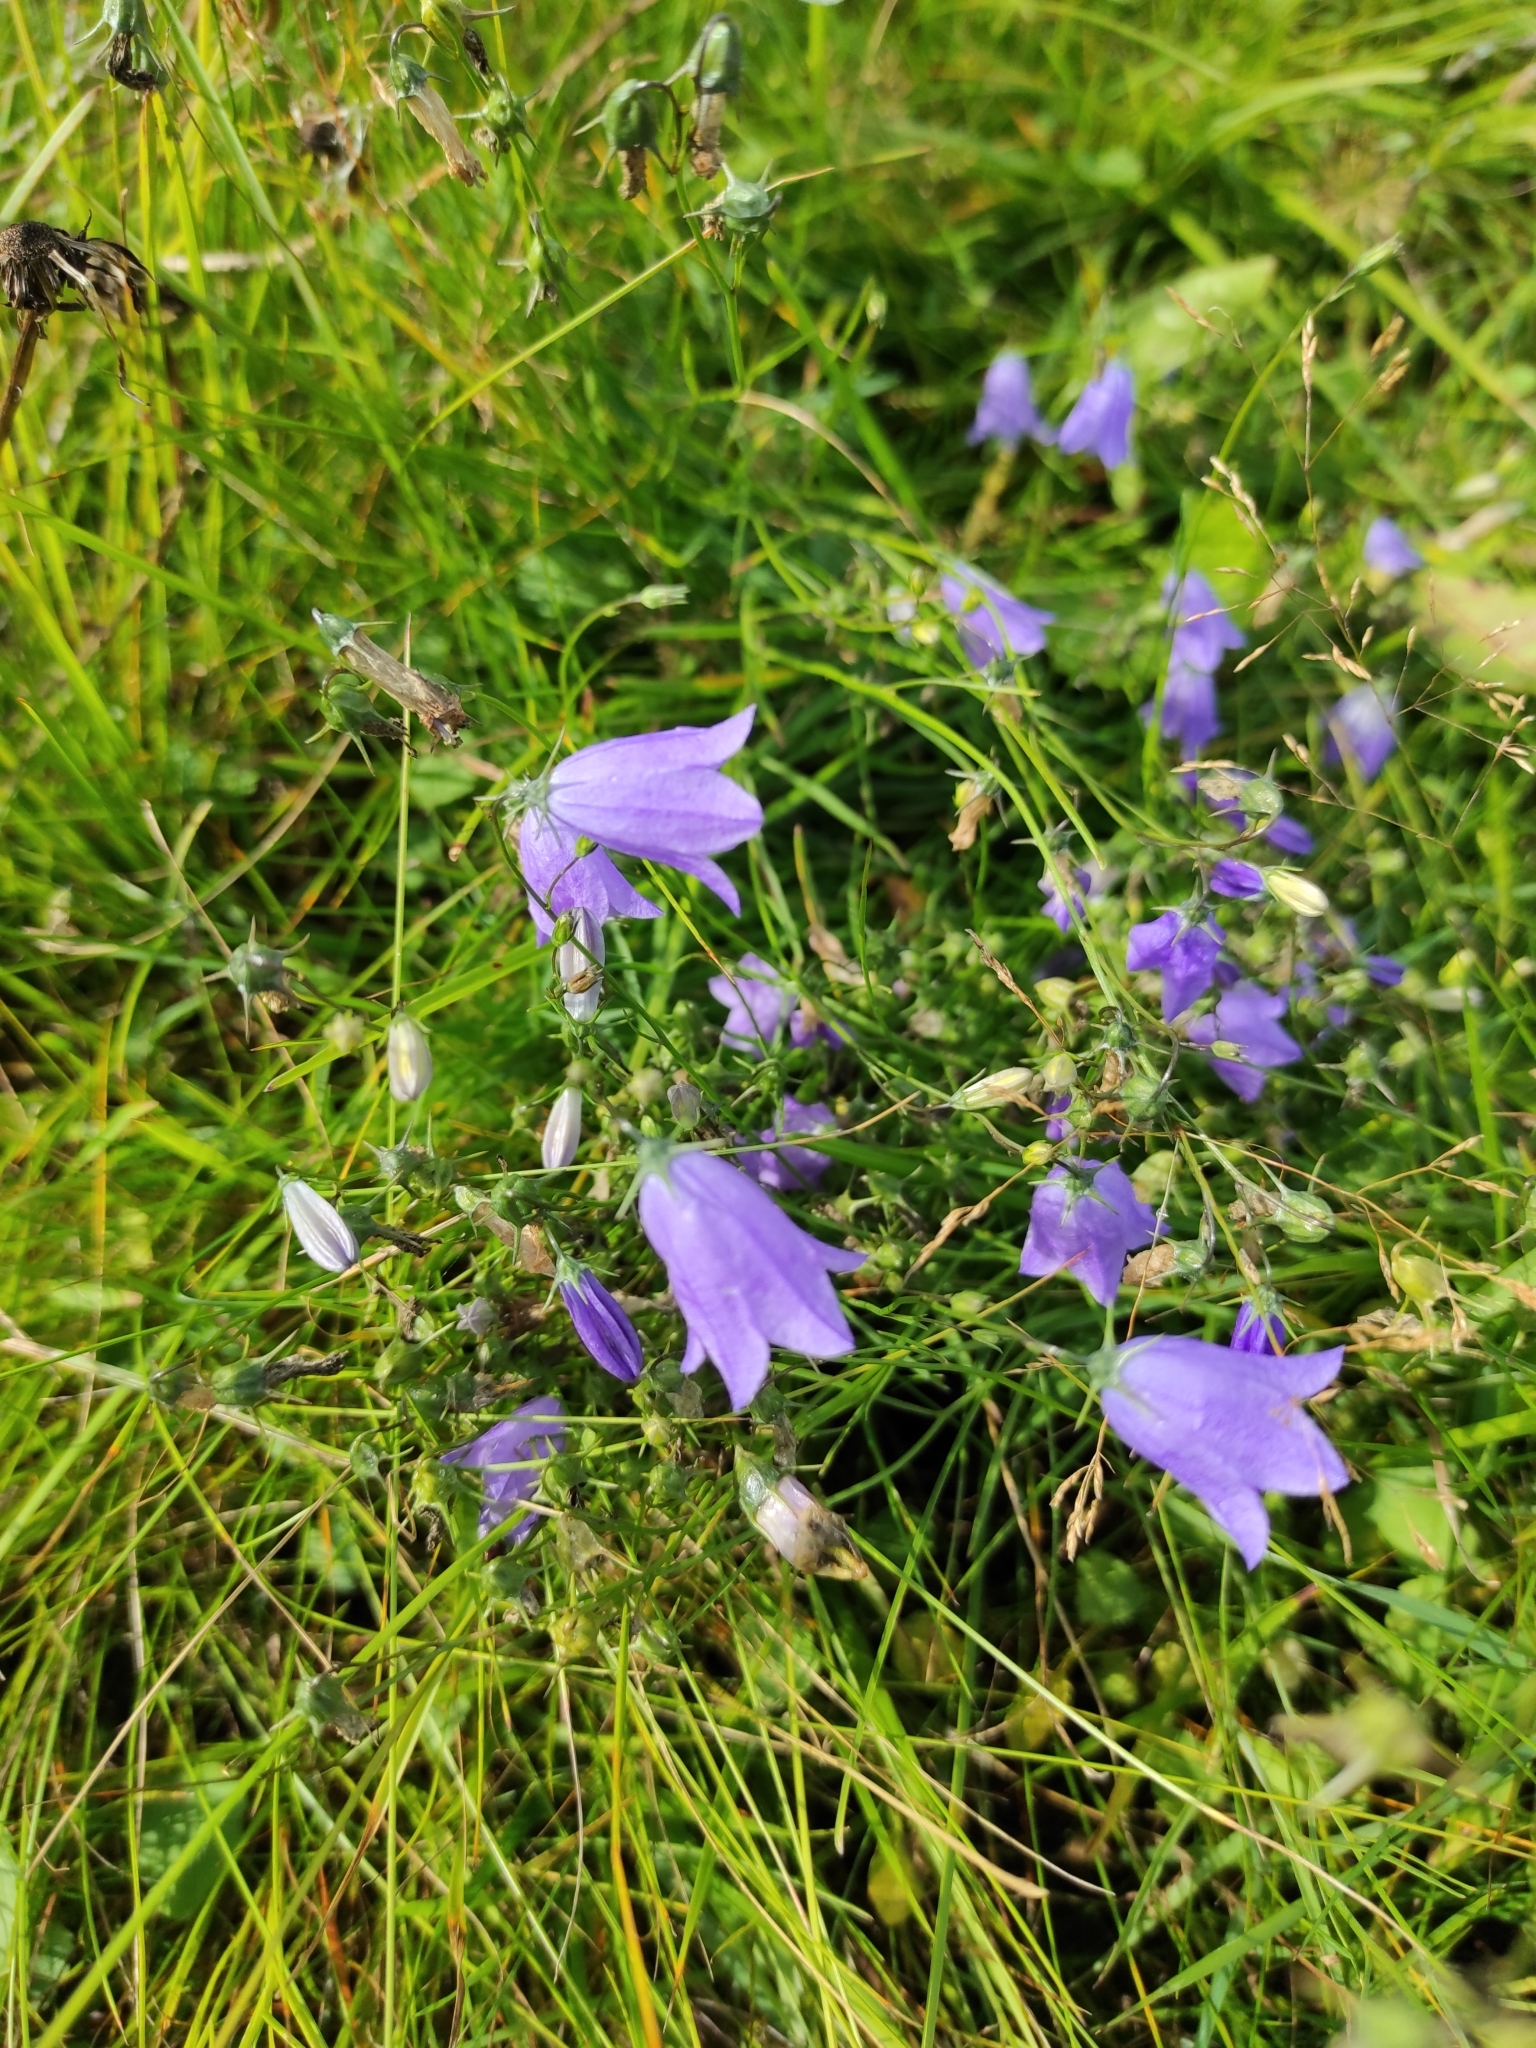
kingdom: Plantae
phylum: Tracheophyta
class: Magnoliopsida
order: Asterales
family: Campanulaceae
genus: Campanula
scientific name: Campanula rotundifolia
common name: Harebell
